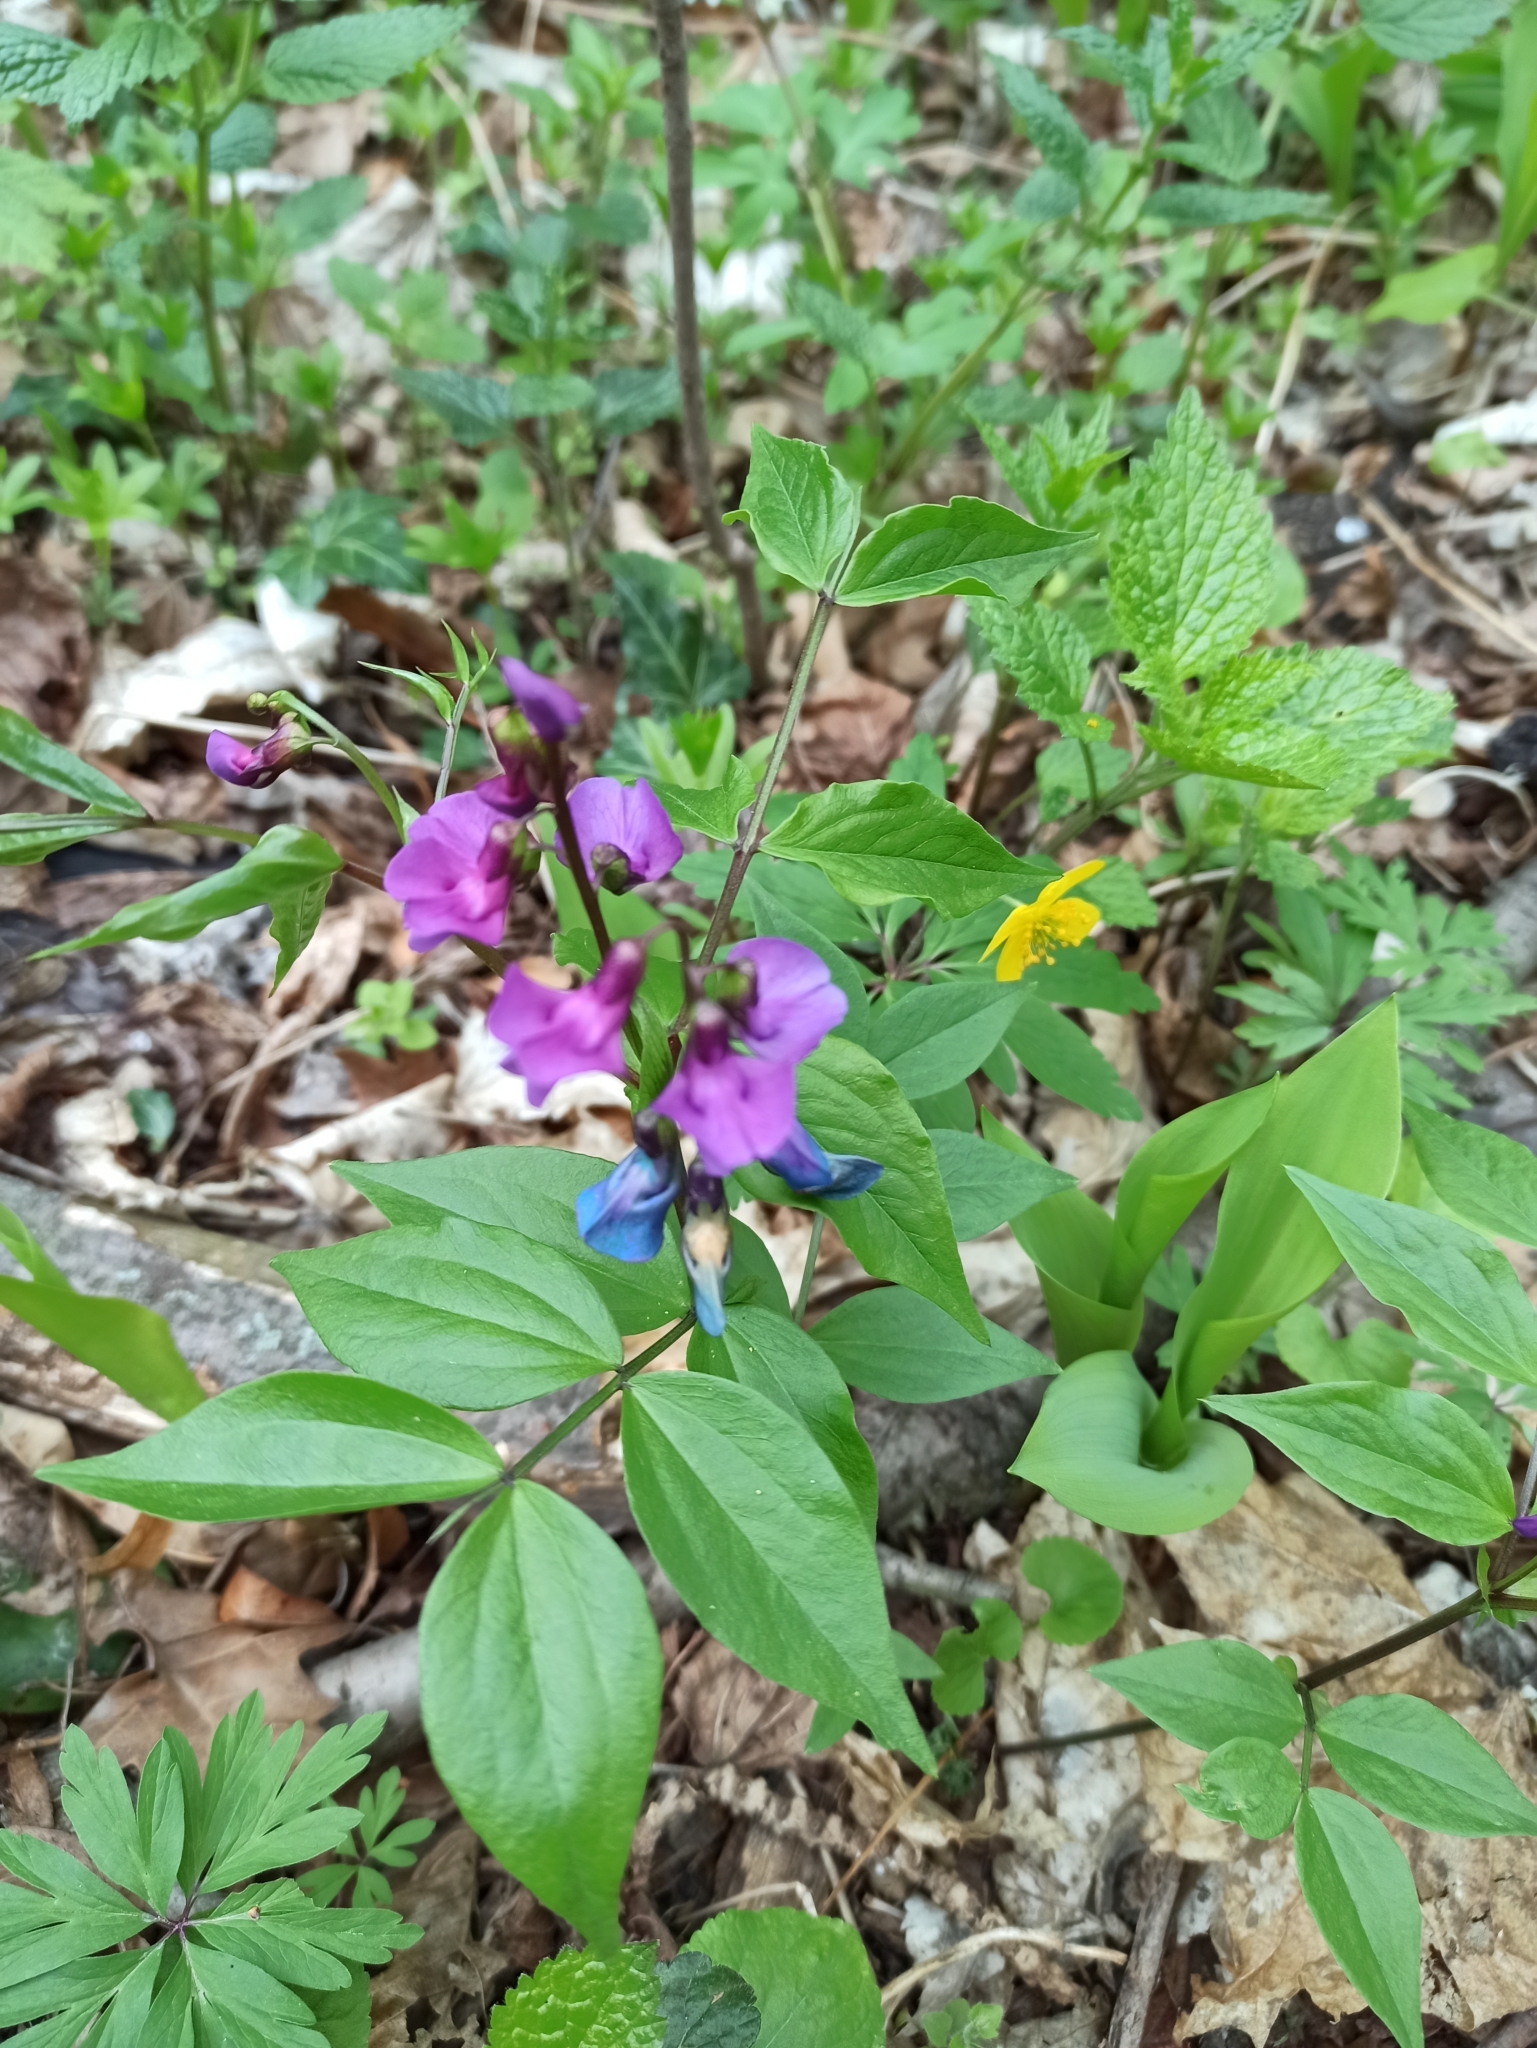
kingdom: Plantae
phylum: Tracheophyta
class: Magnoliopsida
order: Fabales
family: Fabaceae
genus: Lathyrus
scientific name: Lathyrus vernus
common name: Spring pea
